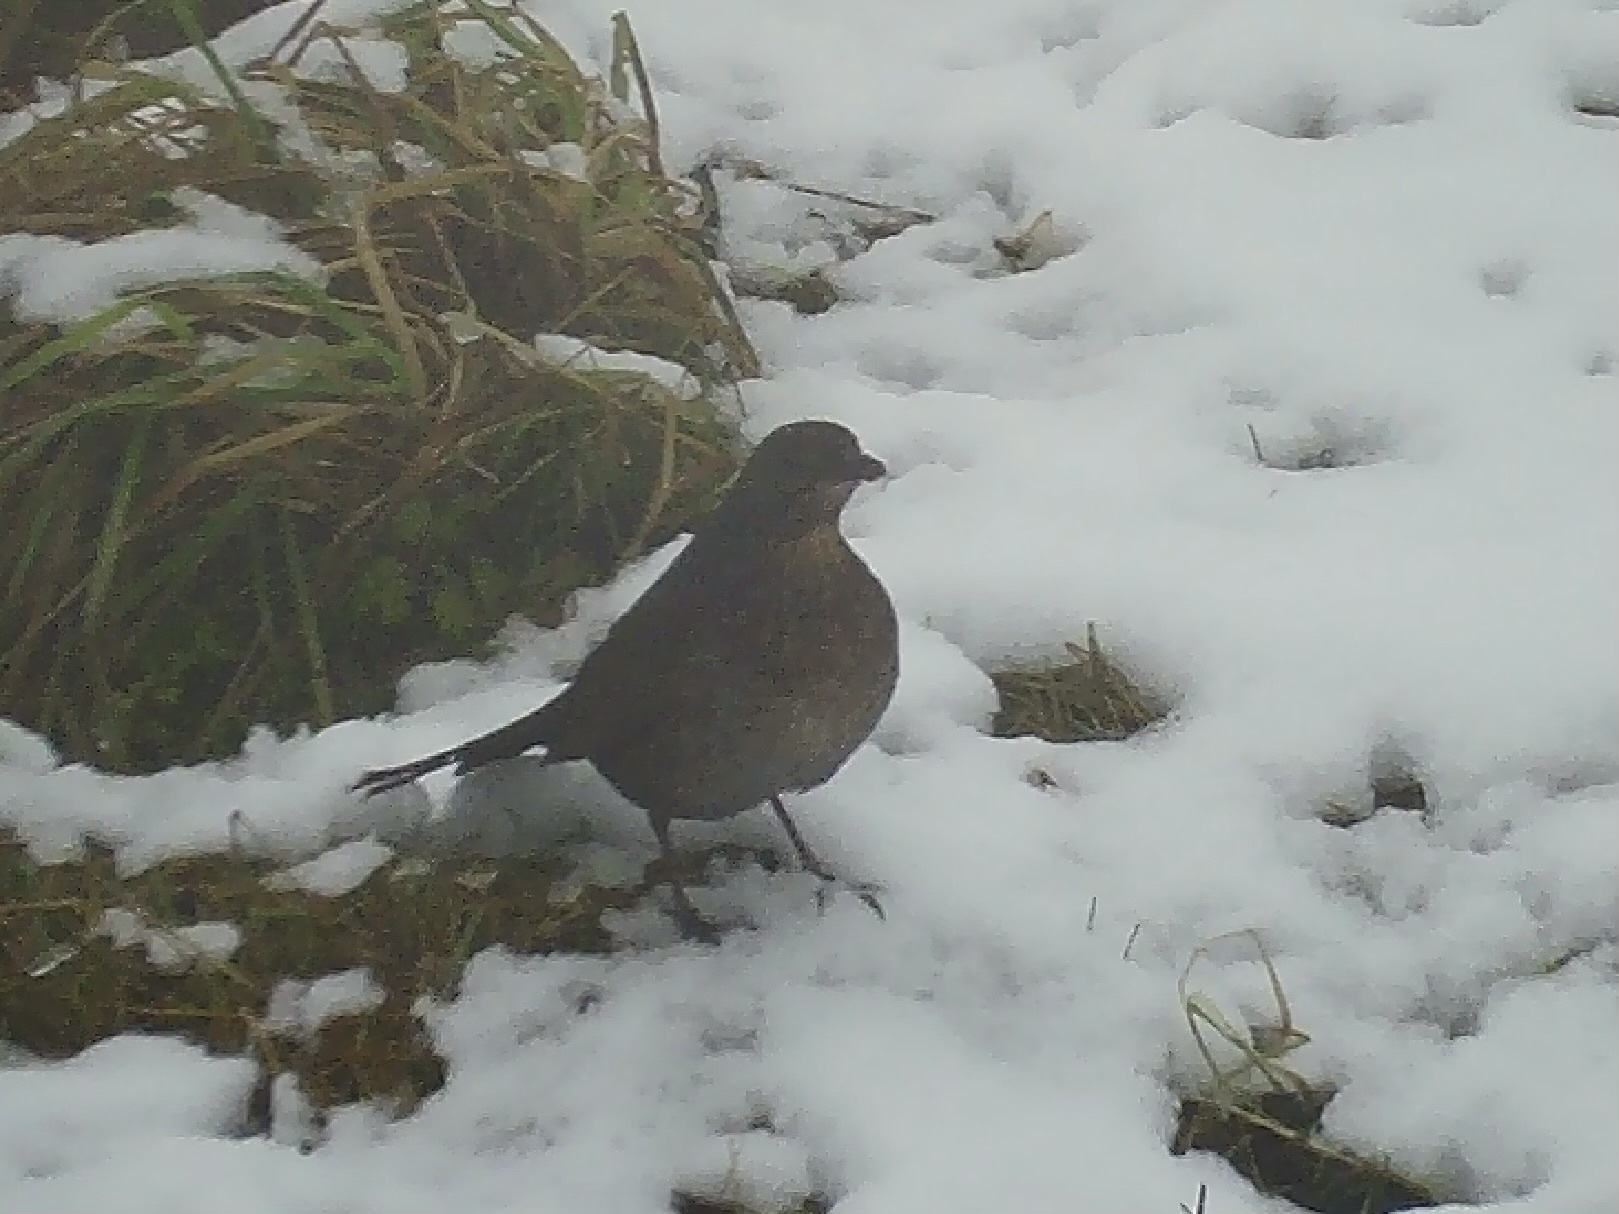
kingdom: Animalia
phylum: Chordata
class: Aves
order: Passeriformes
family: Turdidae
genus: Turdus
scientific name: Turdus merula
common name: Common blackbird
